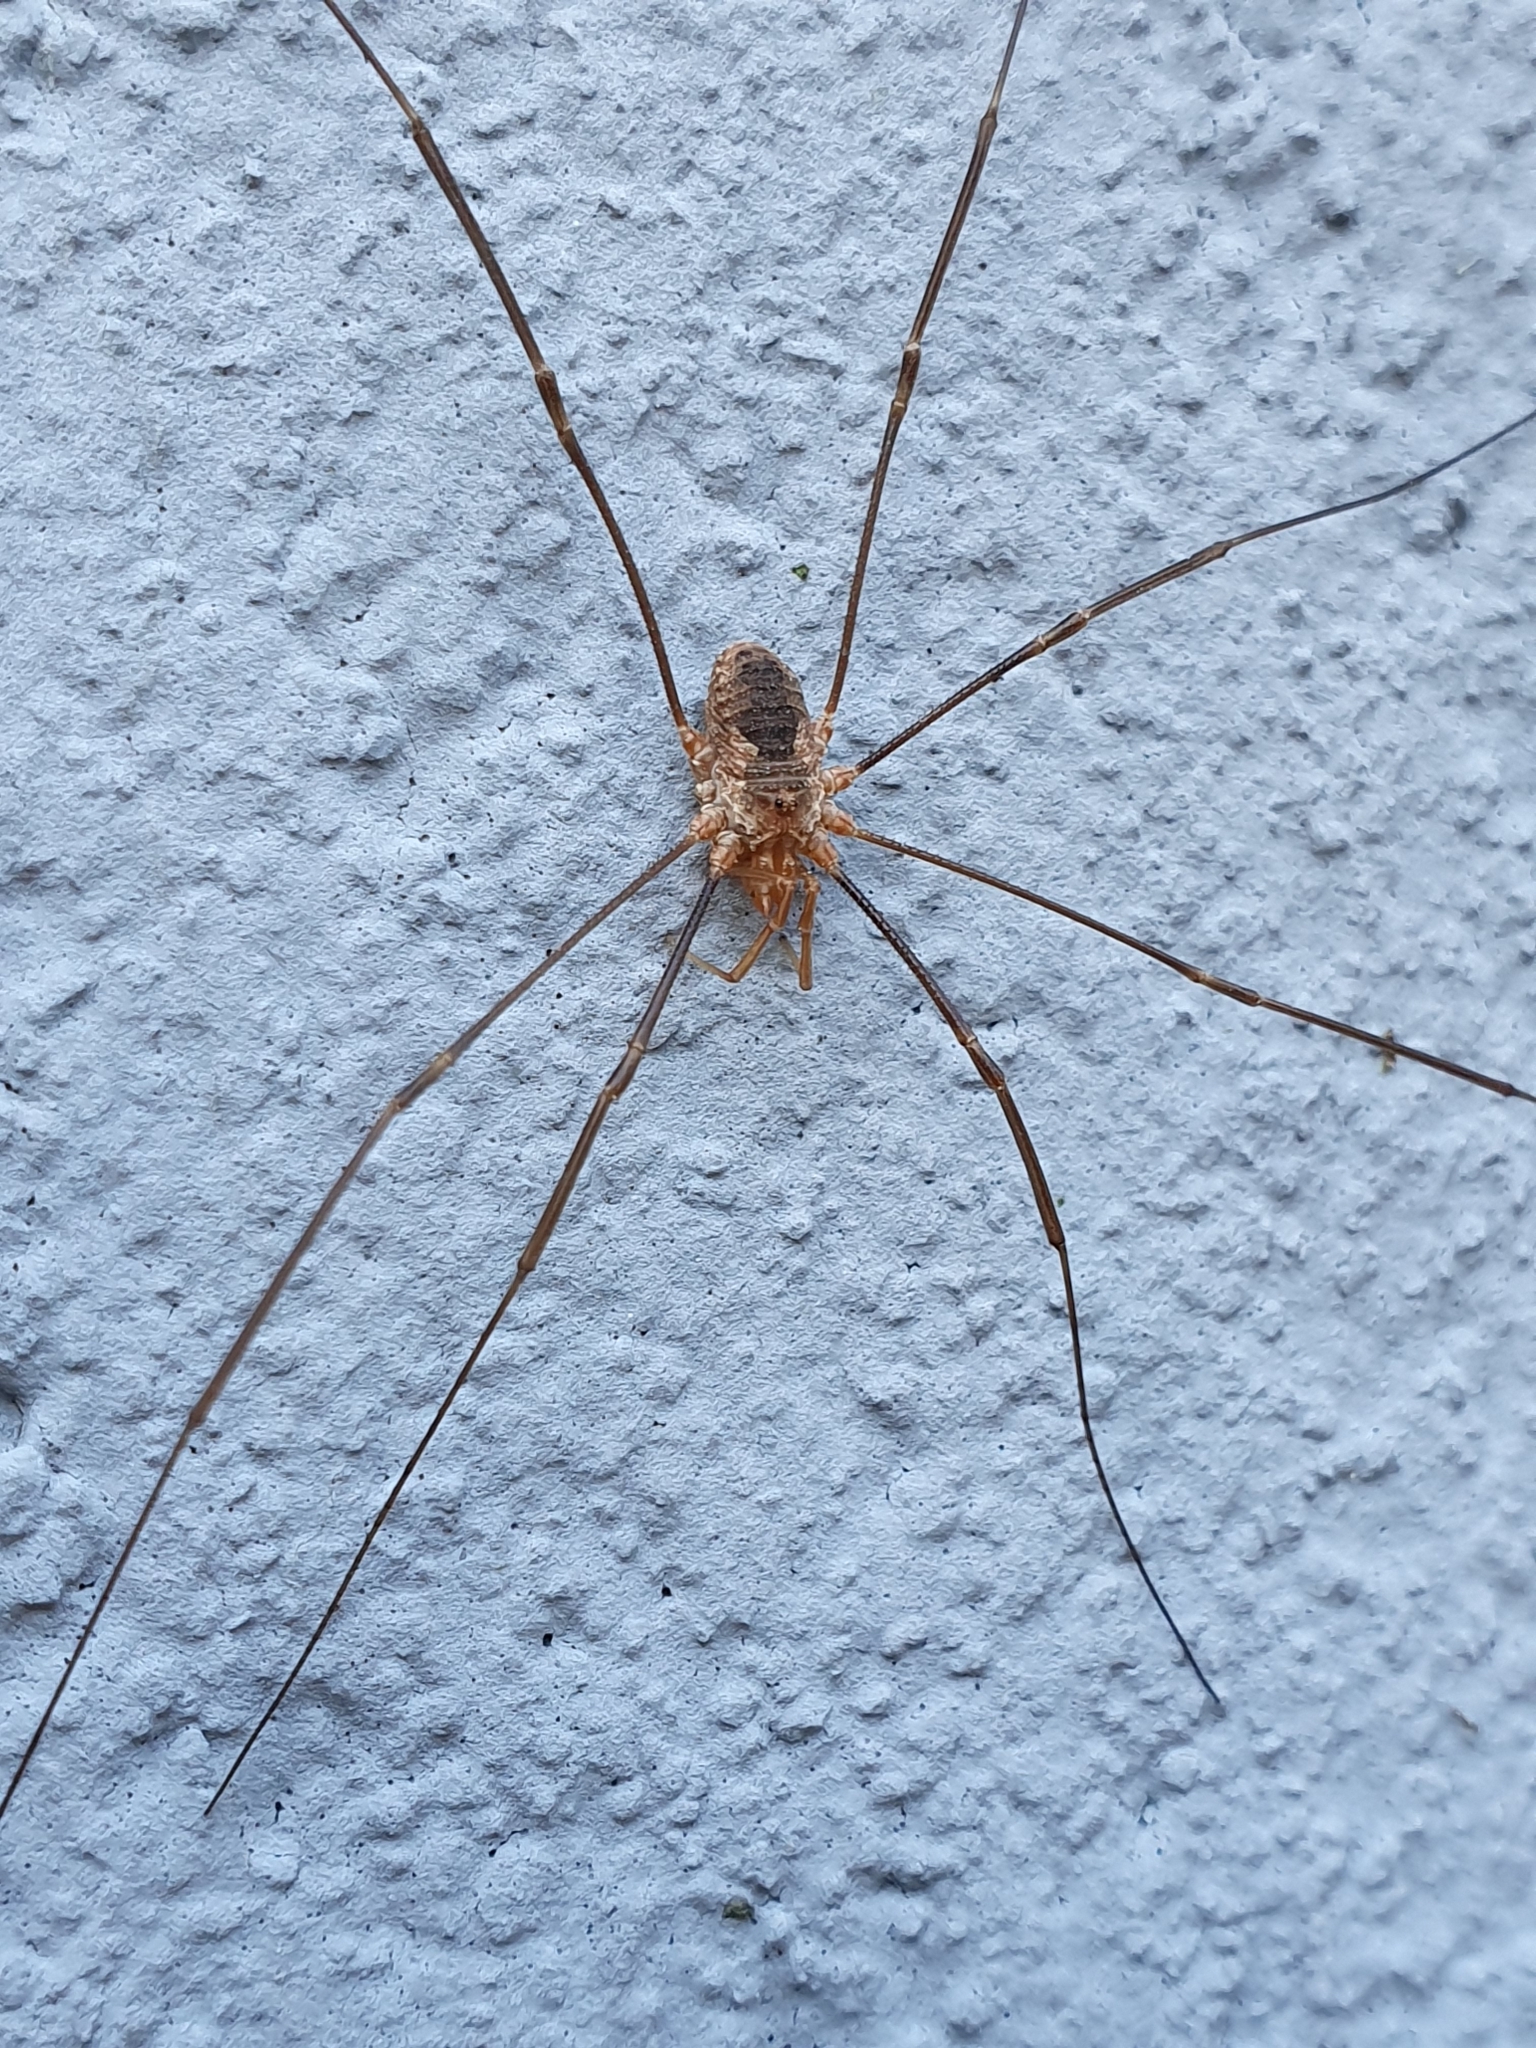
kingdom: Animalia
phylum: Arthropoda
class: Arachnida
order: Opiliones
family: Phalangiidae
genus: Phalangium
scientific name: Phalangium opilio
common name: Daddy longleg
